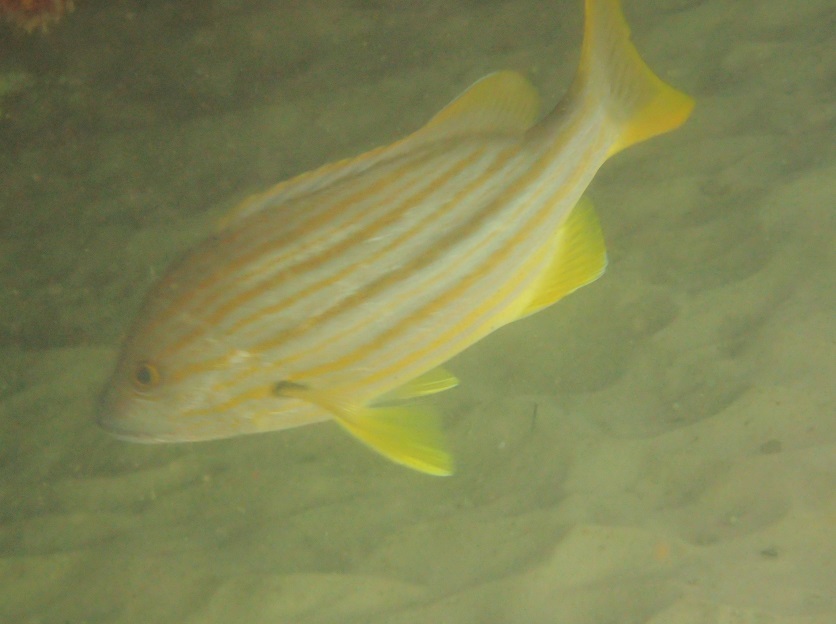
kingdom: Animalia
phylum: Chordata
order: Perciformes
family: Lutjanidae
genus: Lutjanus
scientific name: Lutjanus carponotatus
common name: Spanish flag
